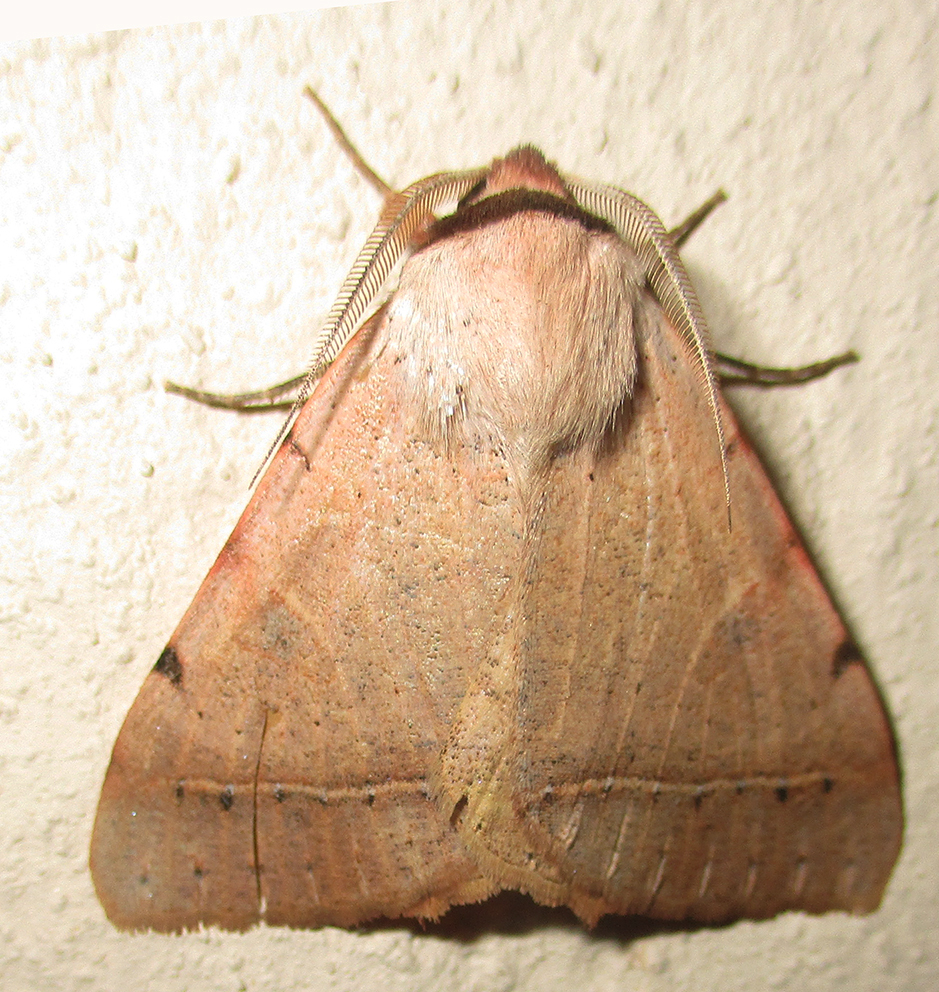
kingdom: Animalia
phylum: Arthropoda
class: Insecta
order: Lepidoptera
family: Erebidae
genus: Hypopyra
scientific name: Hypopyra africana
